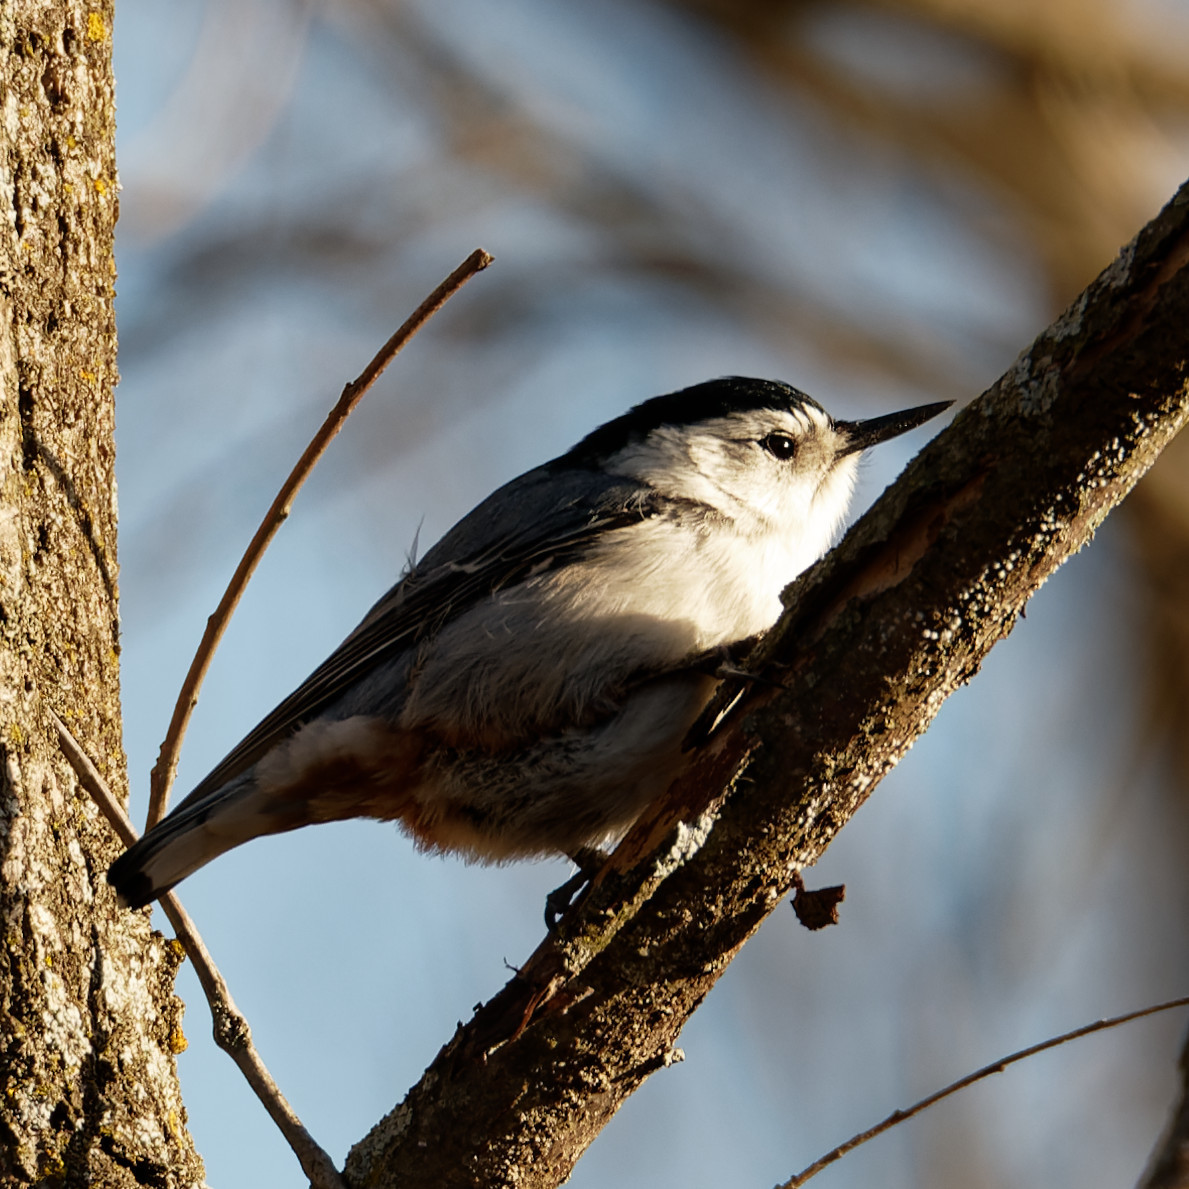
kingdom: Animalia
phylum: Chordata
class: Aves
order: Passeriformes
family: Sittidae
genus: Sitta
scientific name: Sitta carolinensis
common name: White-breasted nuthatch
